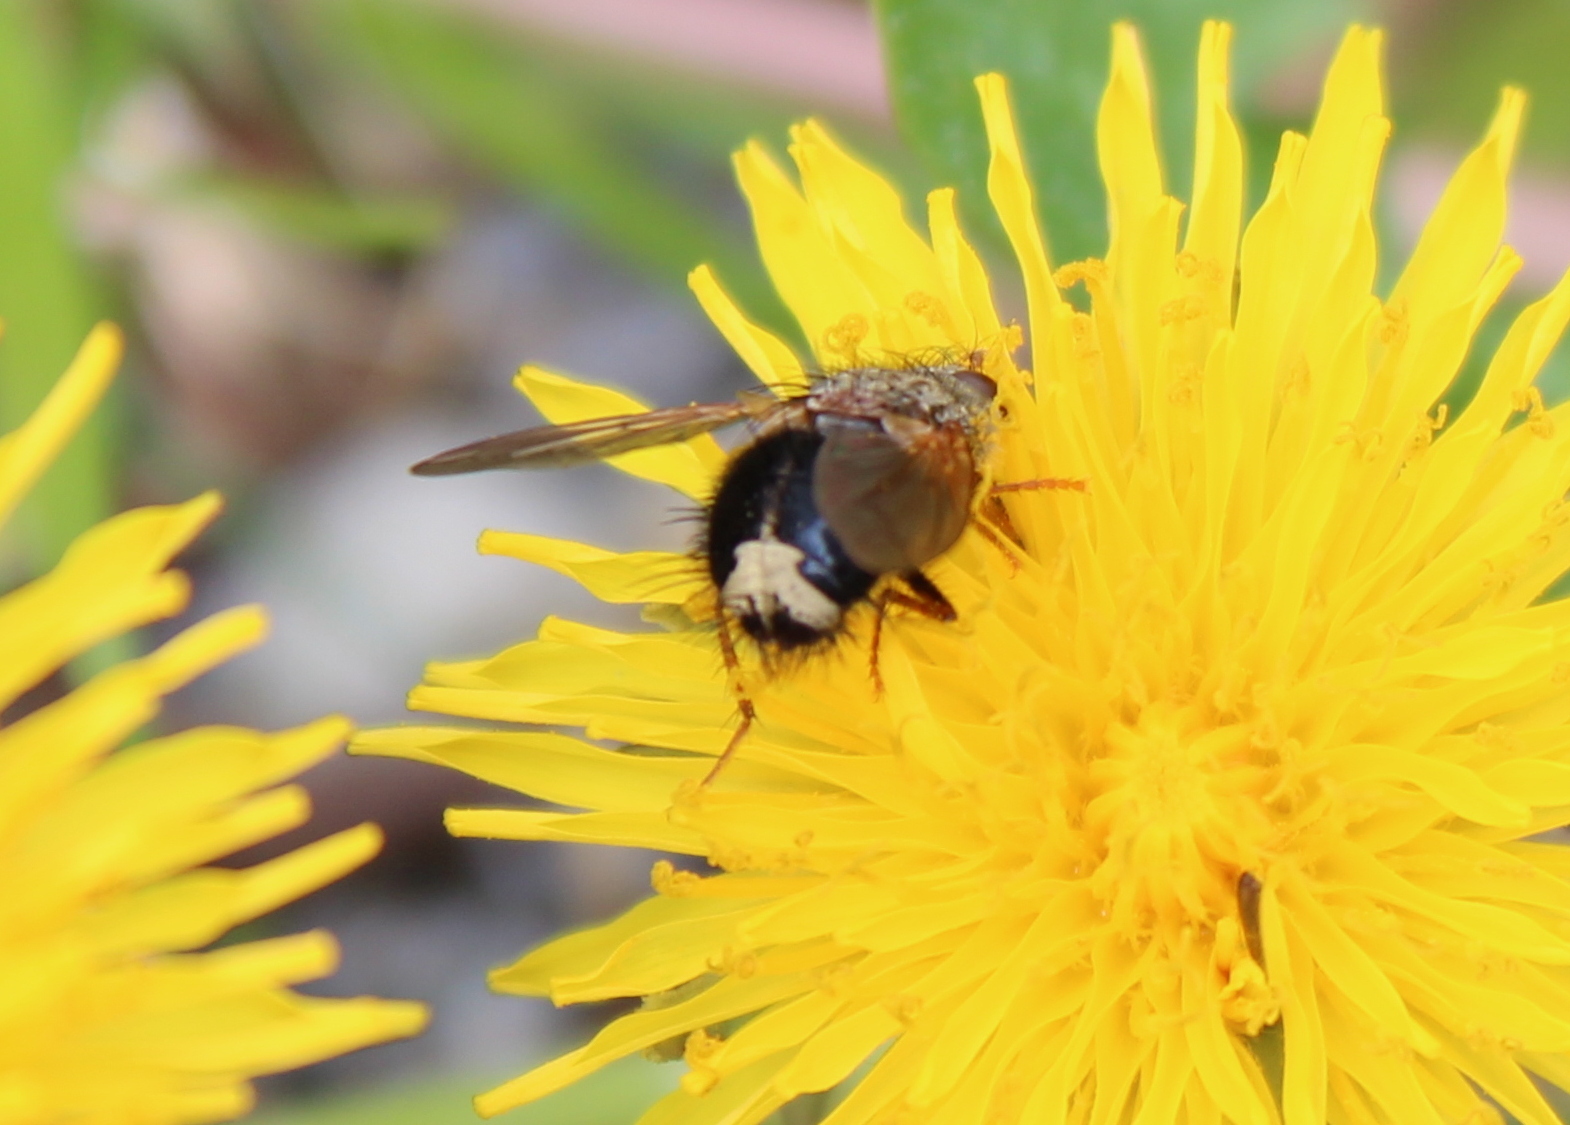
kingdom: Animalia
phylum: Arthropoda
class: Insecta
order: Diptera
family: Tachinidae
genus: Epalpus
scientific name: Epalpus signifer
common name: Early tachinid fly
